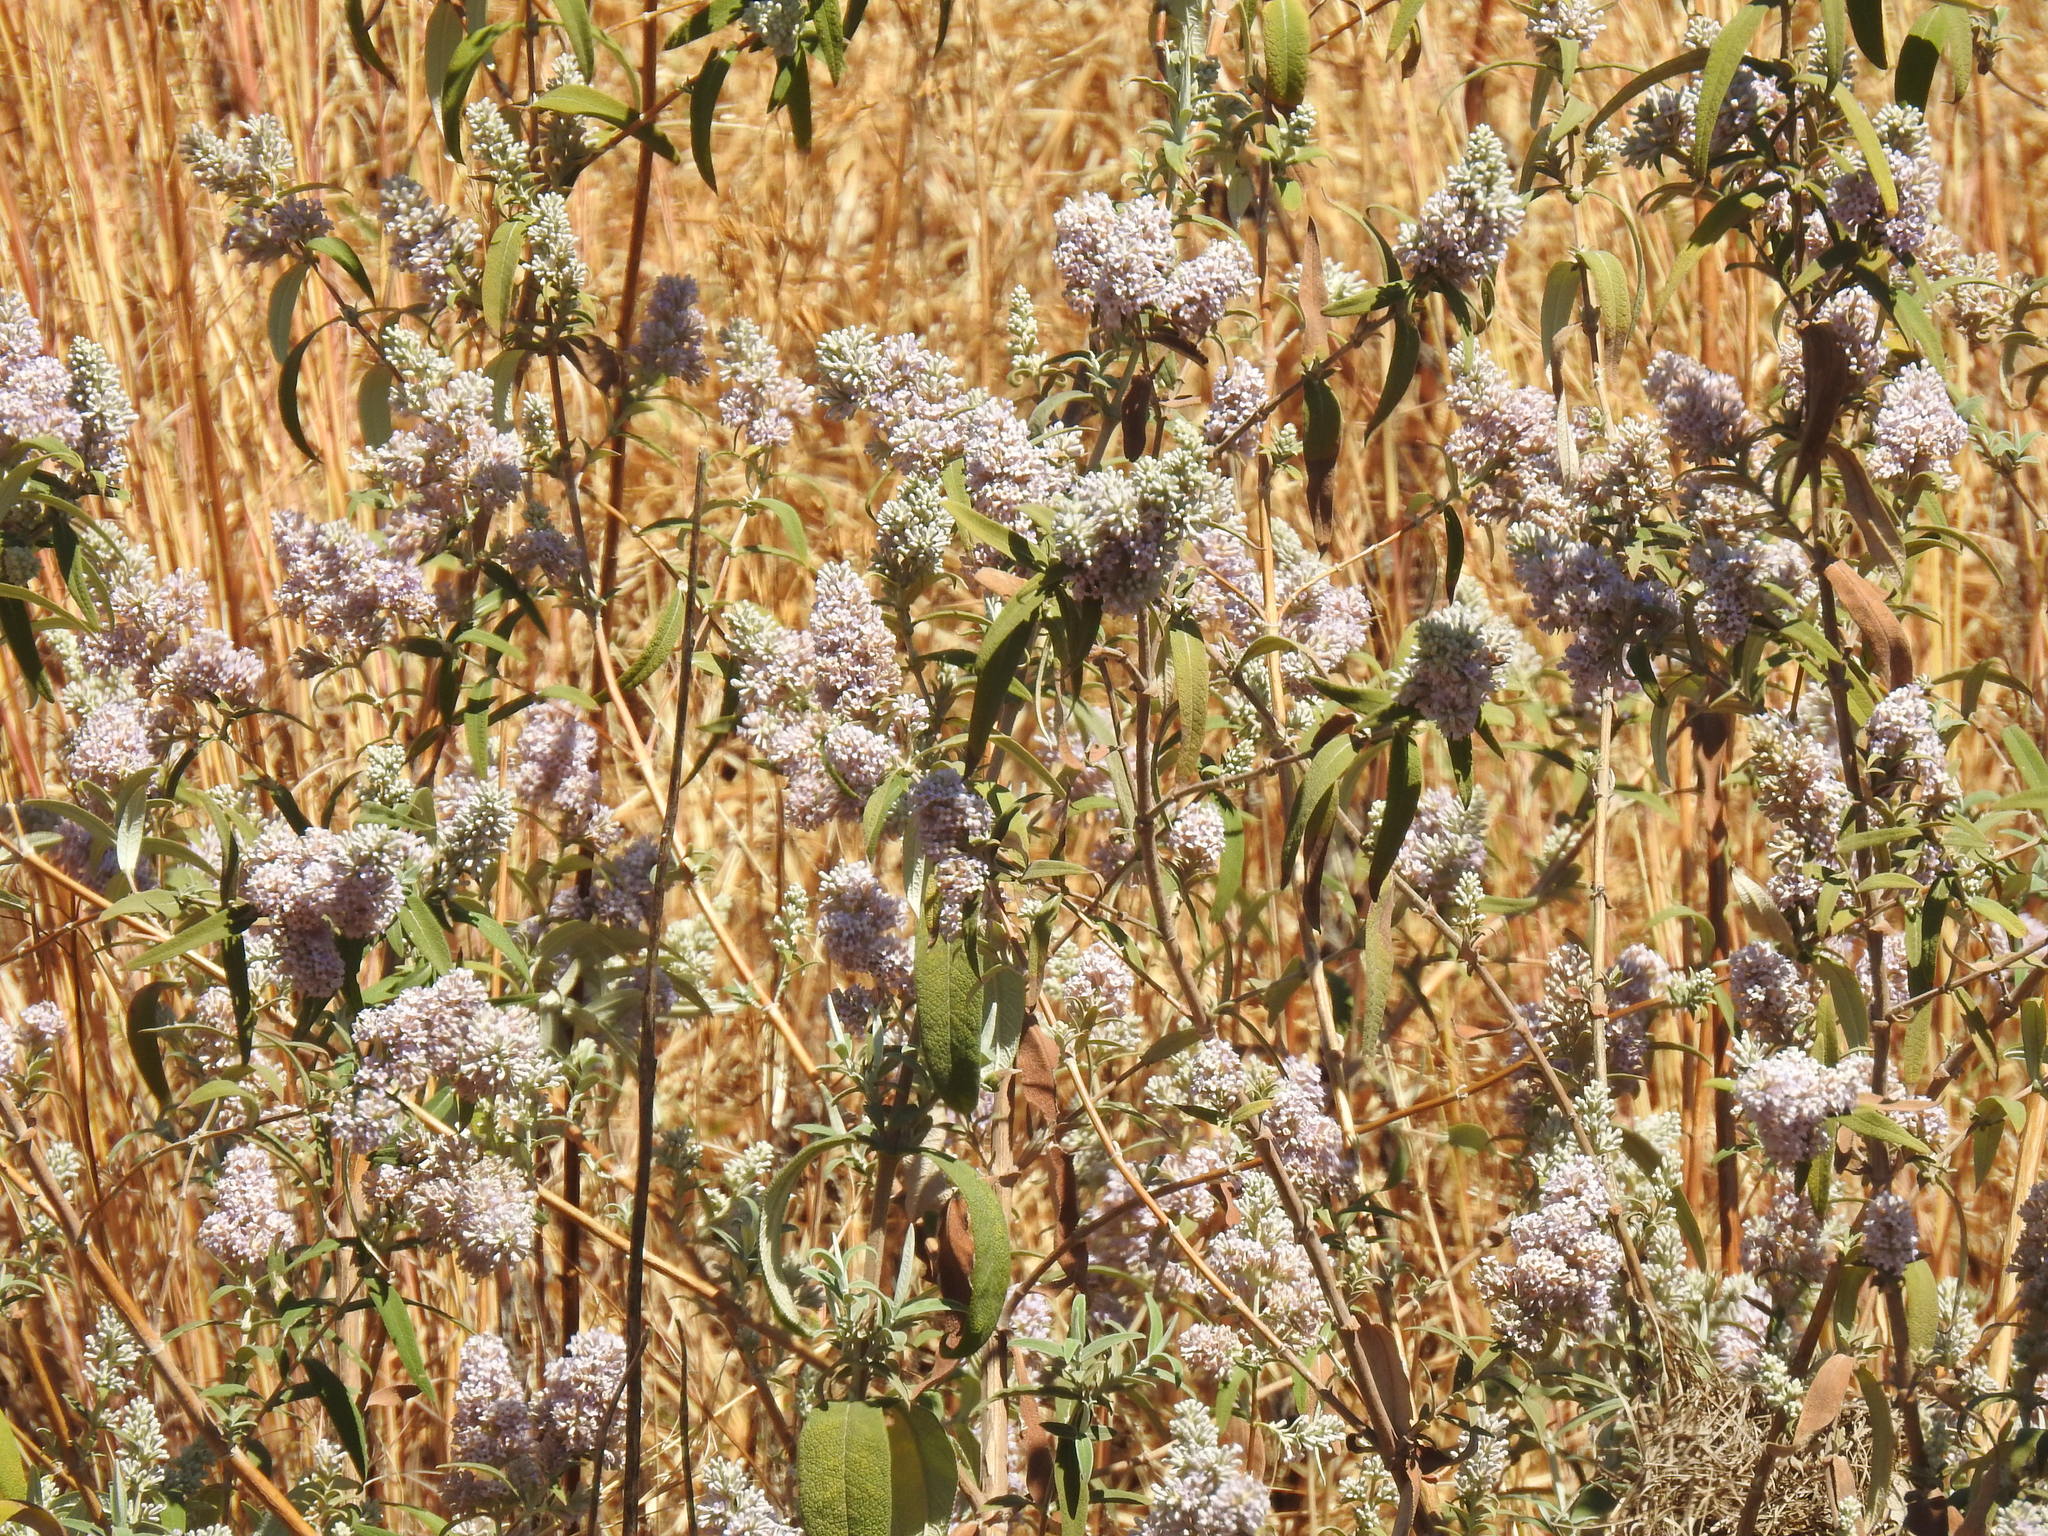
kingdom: Plantae
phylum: Tracheophyta
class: Magnoliopsida
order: Lamiales
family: Scrophulariaceae
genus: Buddleja
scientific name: Buddleja salviifolia
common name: Sagewood
